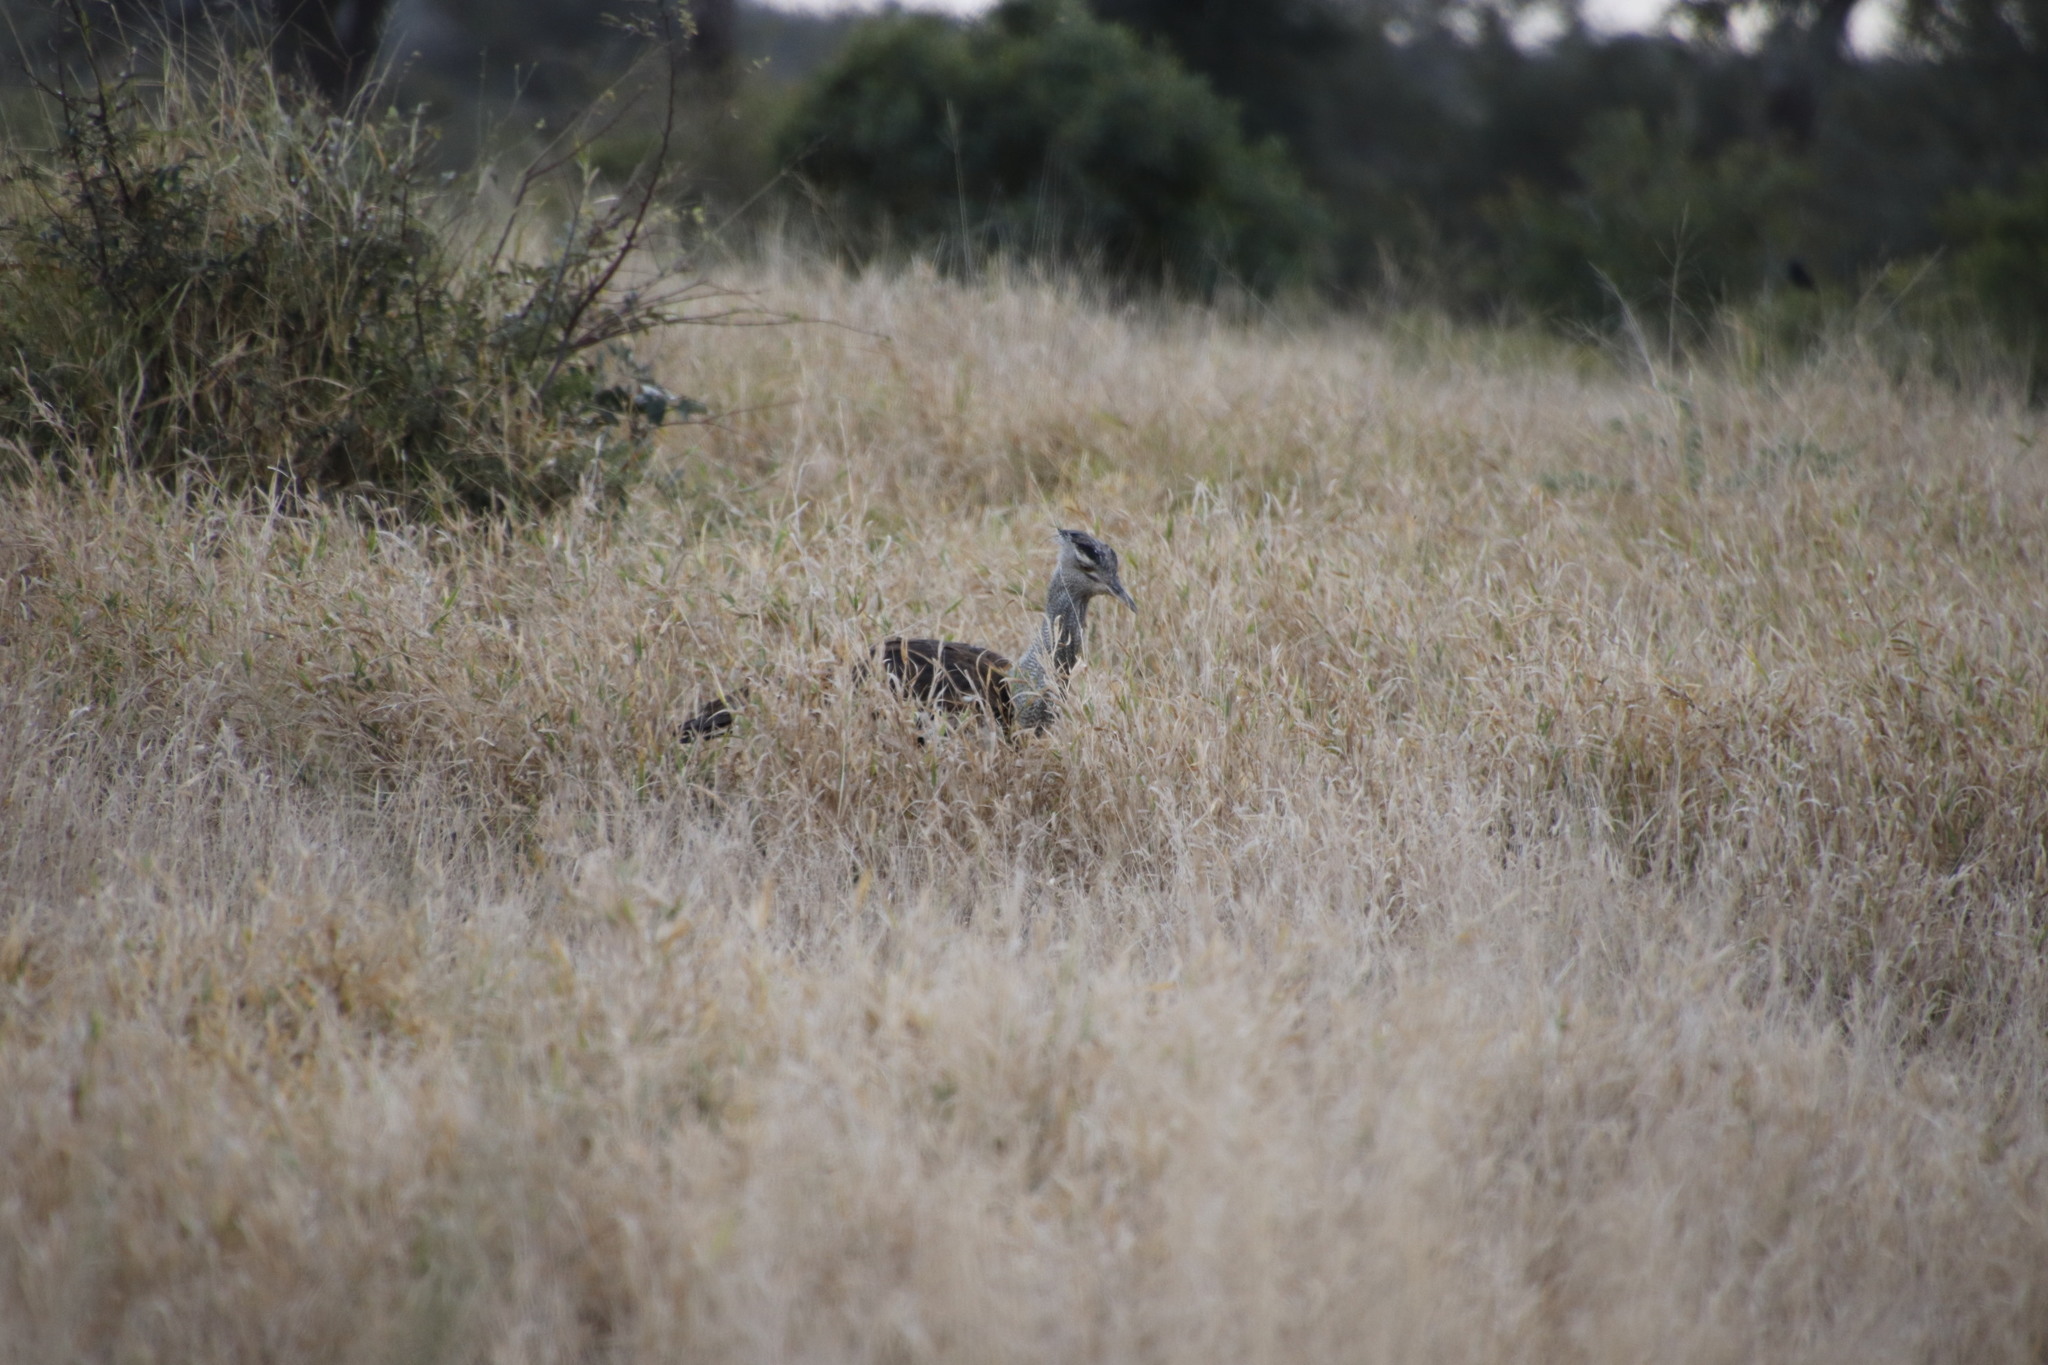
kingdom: Animalia
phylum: Chordata
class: Aves
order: Otidiformes
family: Otididae
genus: Ardeotis
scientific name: Ardeotis kori
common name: Kori bustard
